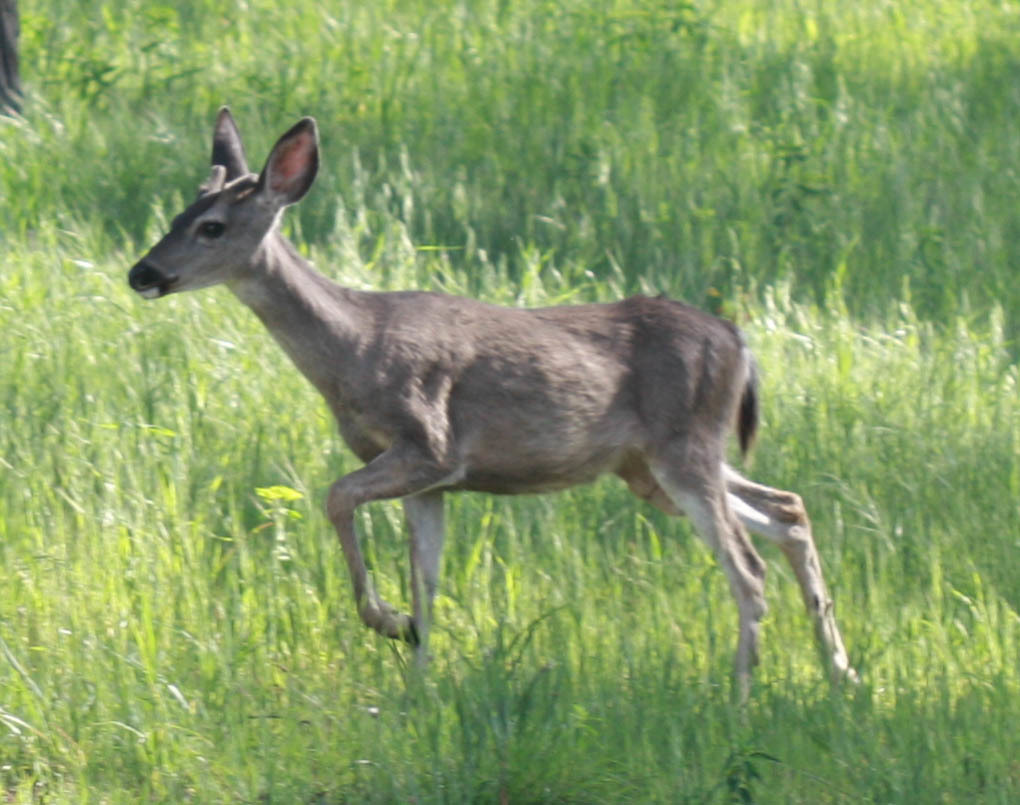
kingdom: Animalia
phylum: Chordata
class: Mammalia
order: Artiodactyla
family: Cervidae
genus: Odocoileus
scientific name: Odocoileus hemionus
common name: Mule deer
